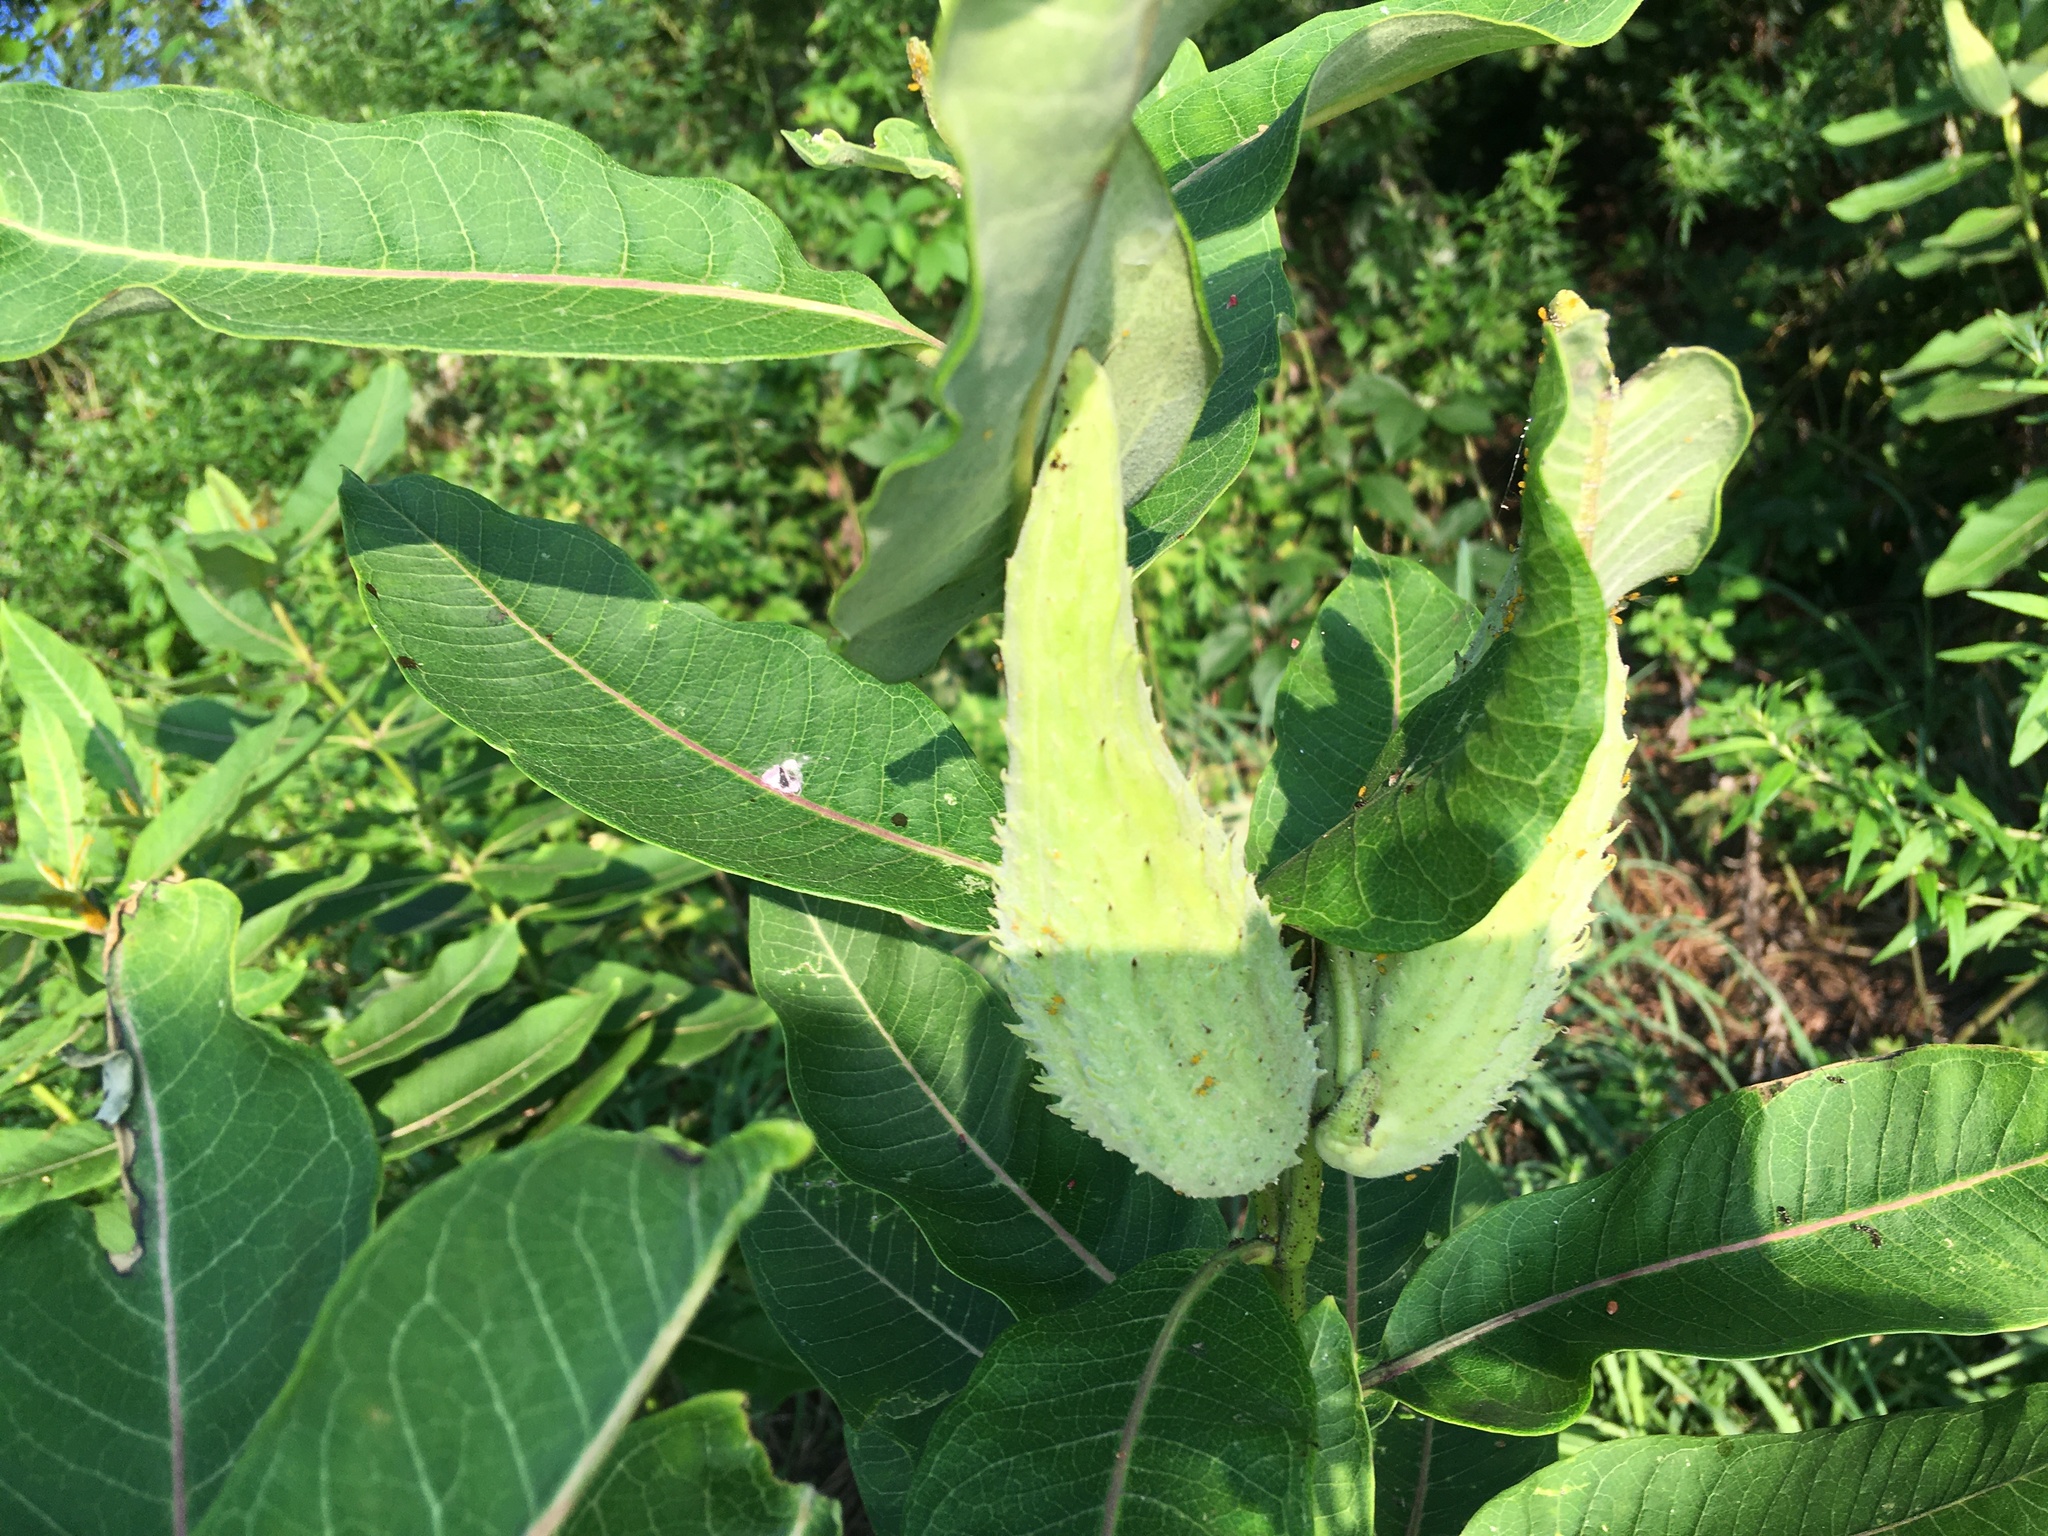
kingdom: Plantae
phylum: Tracheophyta
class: Magnoliopsida
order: Gentianales
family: Apocynaceae
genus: Asclepias
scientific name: Asclepias syriaca
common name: Common milkweed
